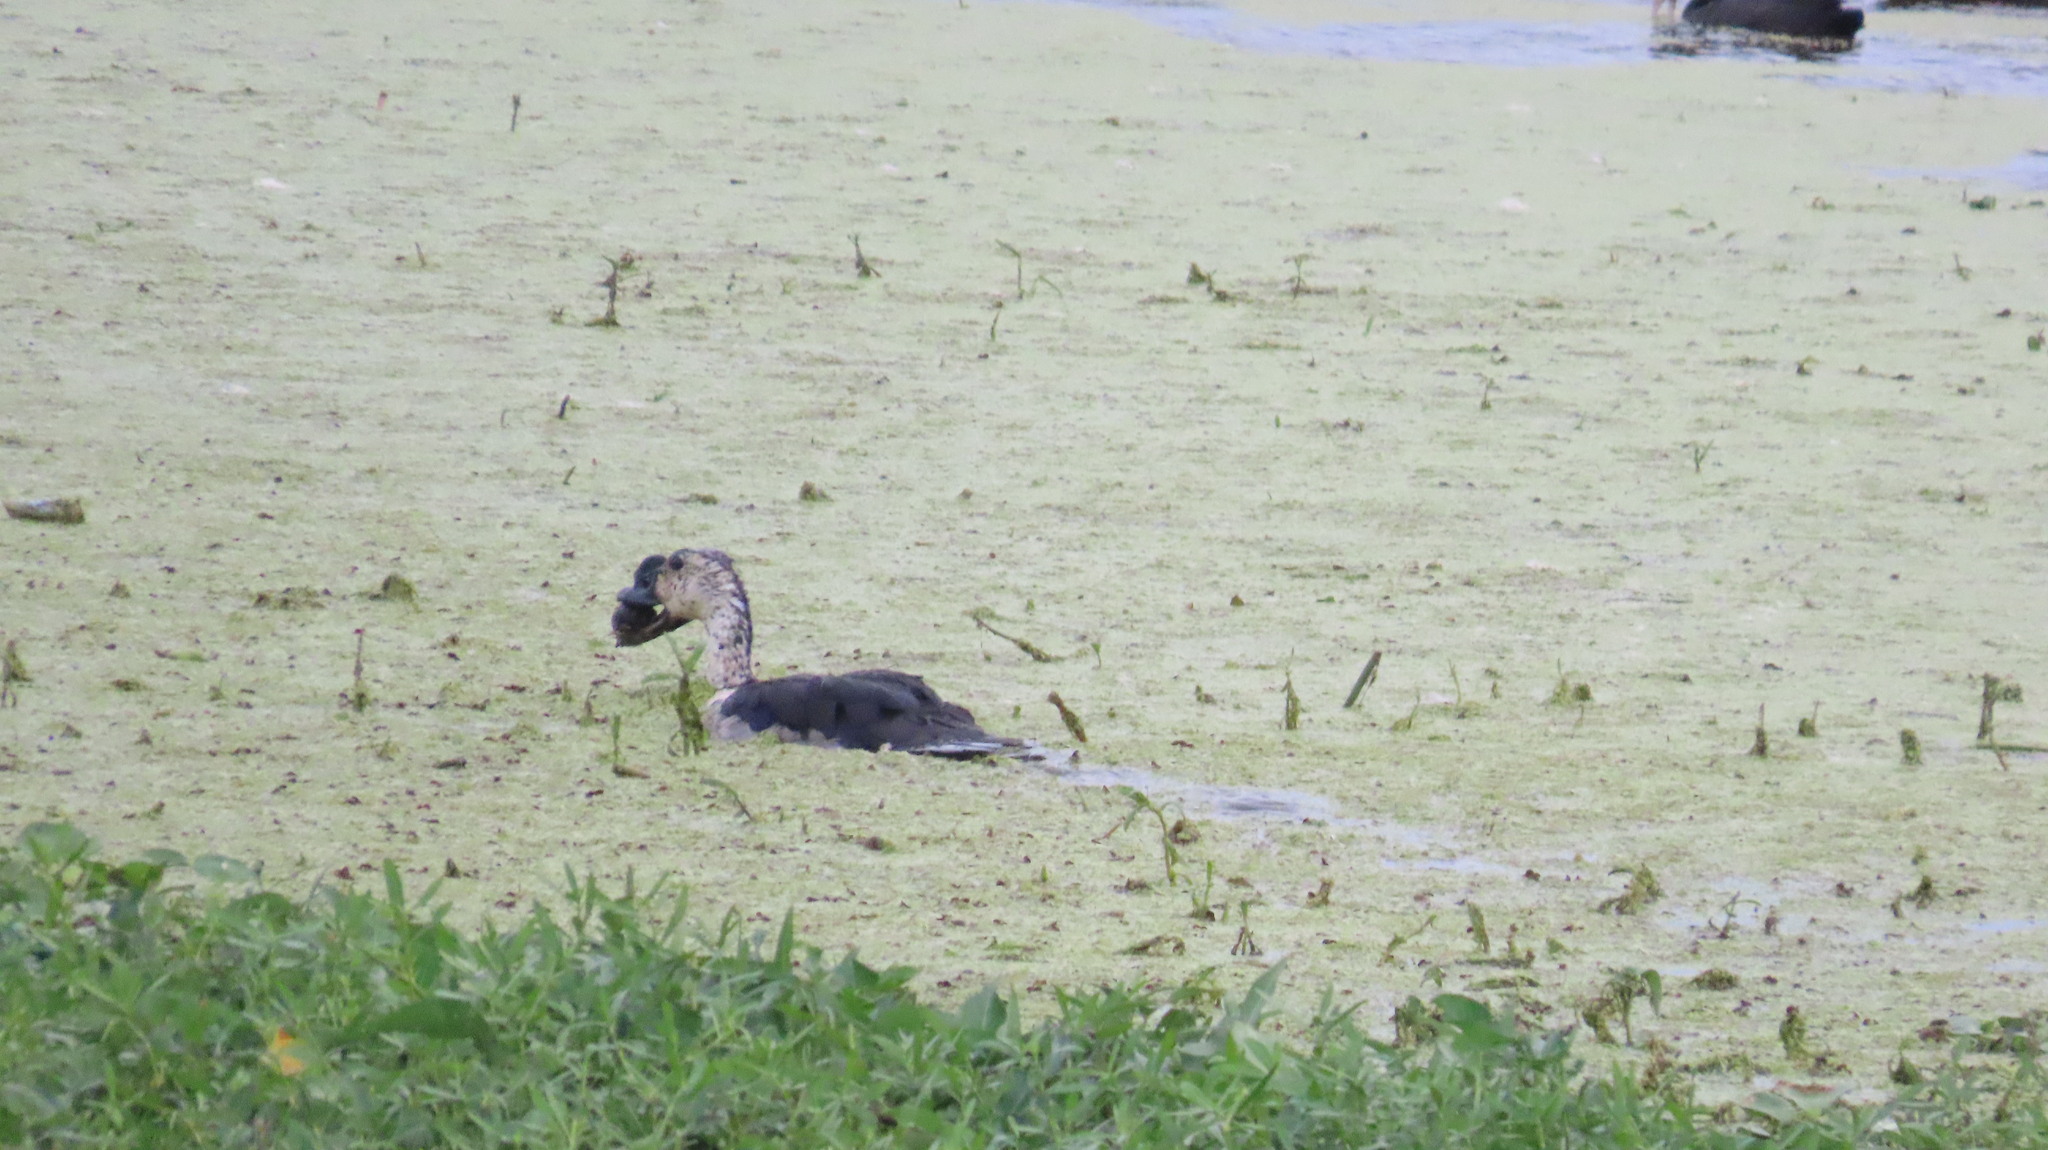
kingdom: Animalia
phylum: Chordata
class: Aves
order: Anseriformes
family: Anatidae
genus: Sarkidiornis
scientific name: Sarkidiornis melanotos
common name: Comb duck
